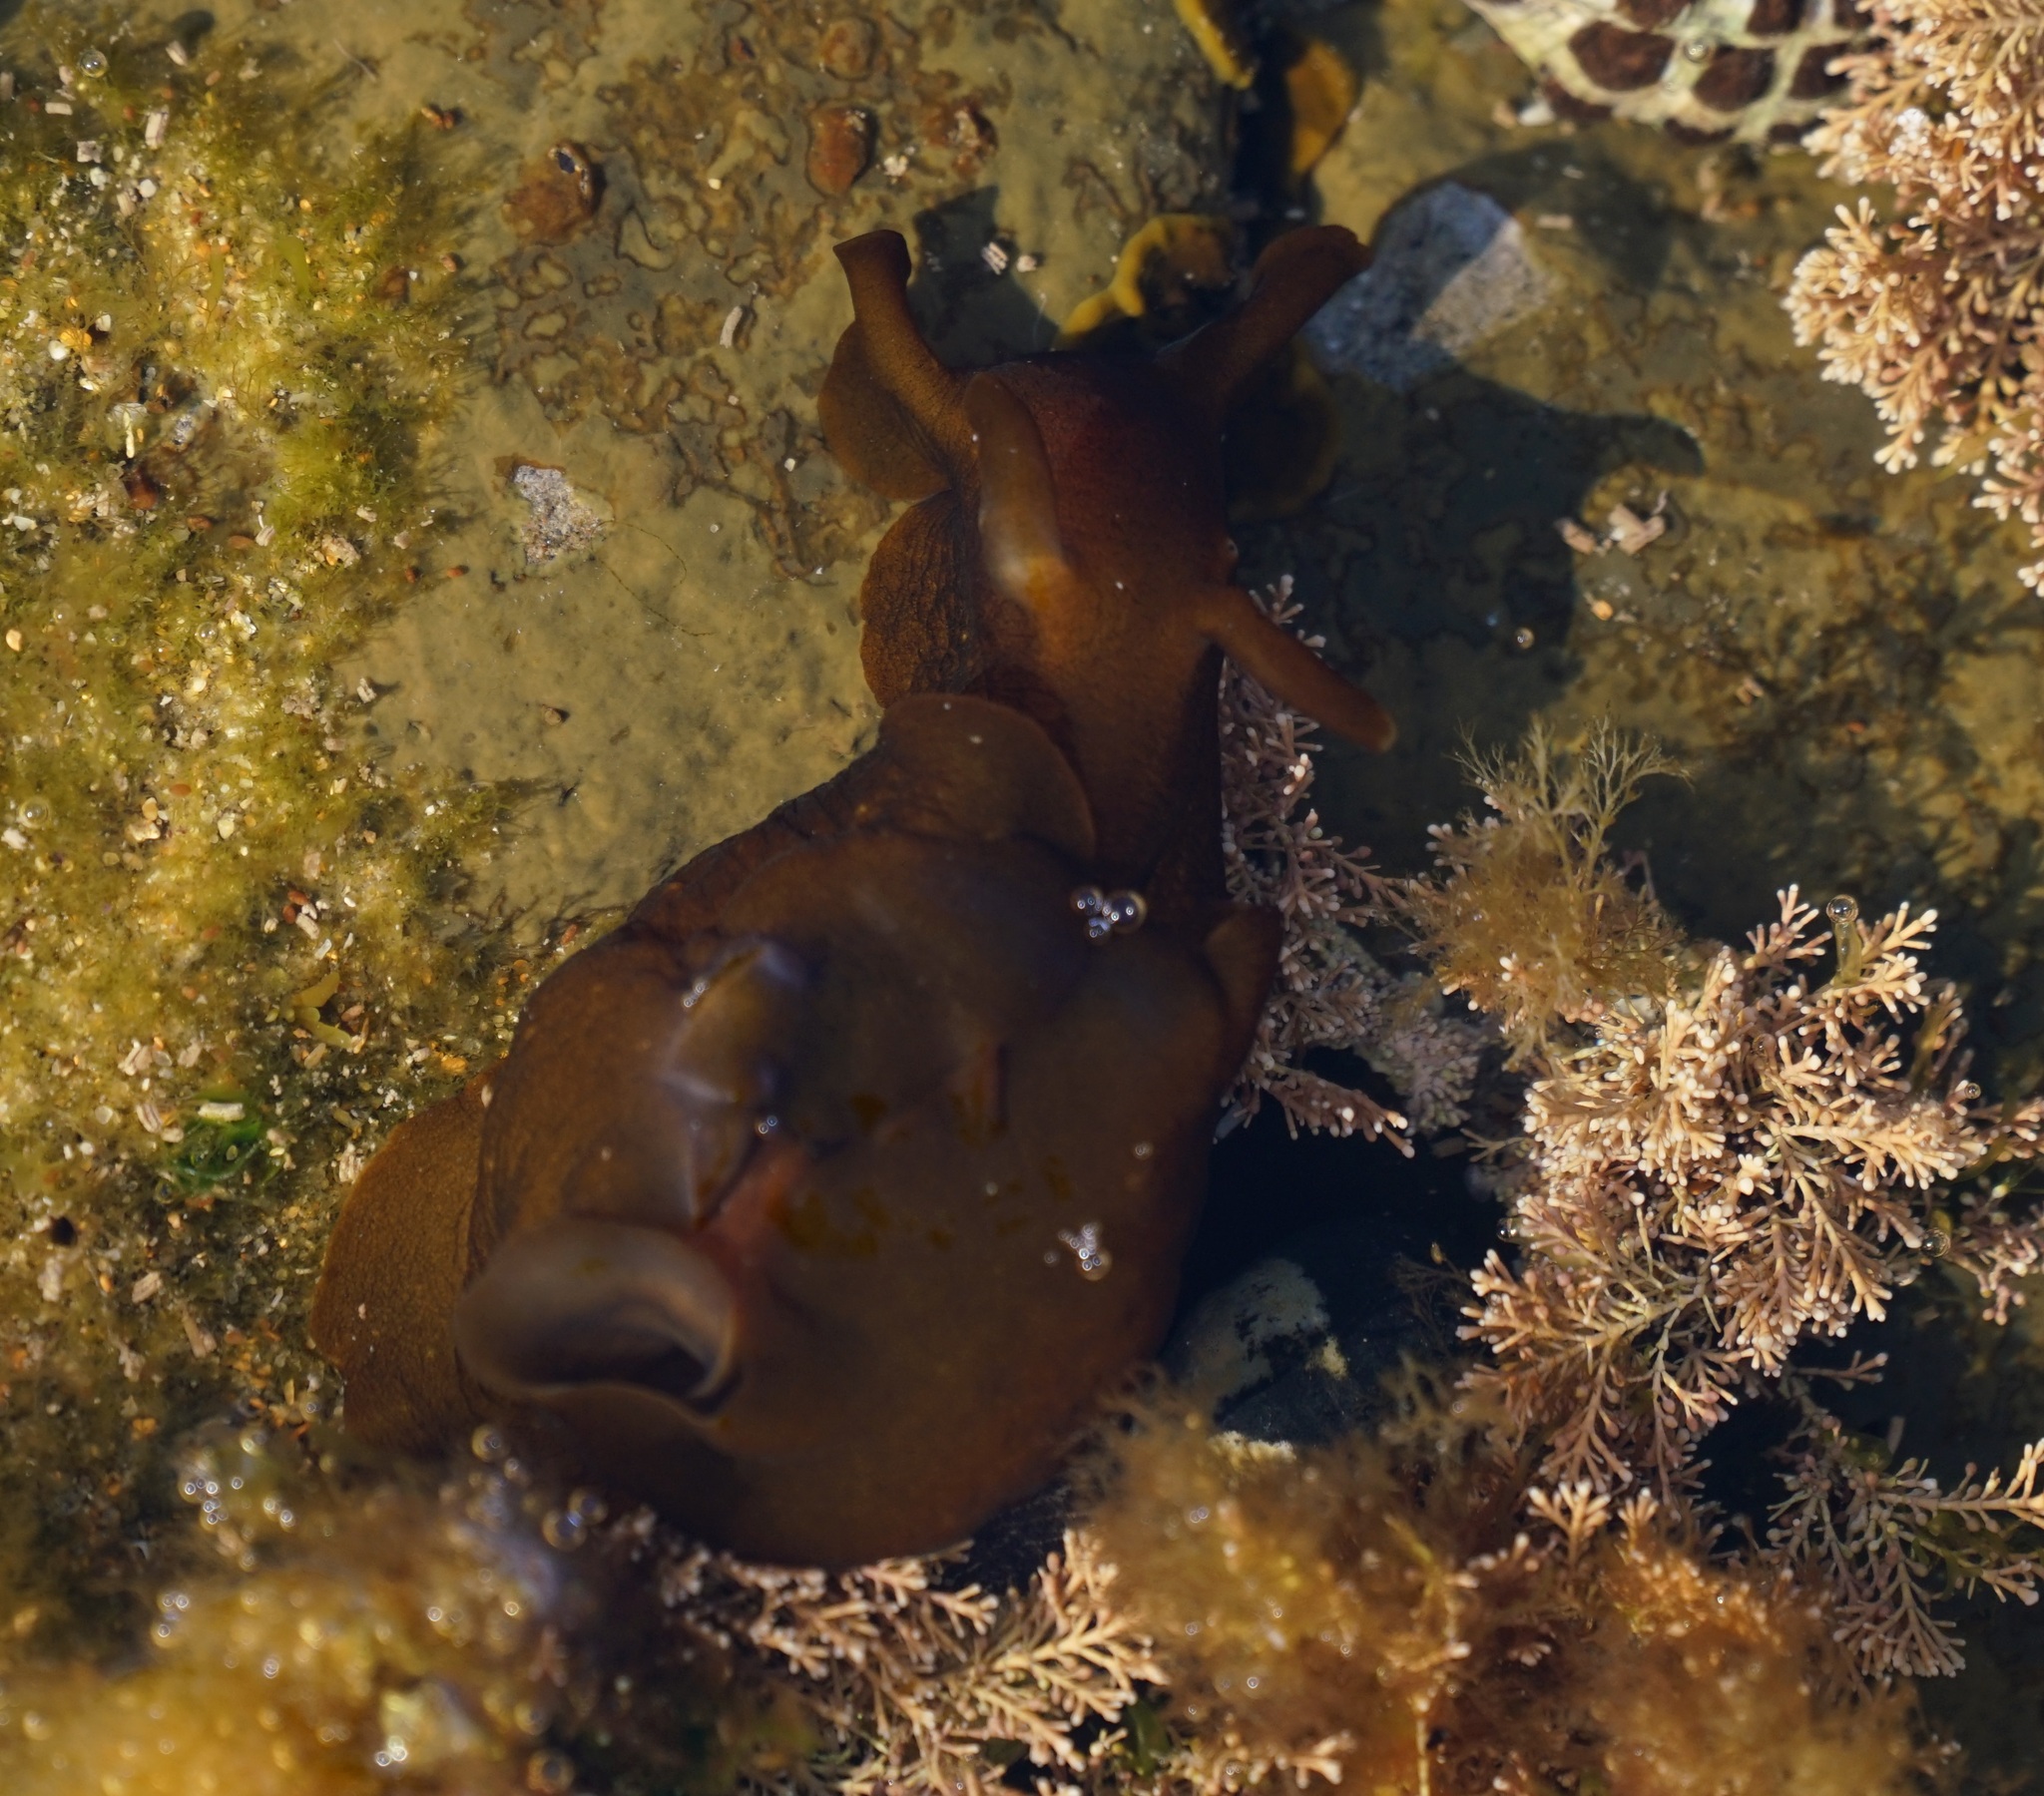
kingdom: Animalia
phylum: Mollusca
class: Gastropoda
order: Aplysiida
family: Aplysiidae
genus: Aplysia
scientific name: Aplysia juliana
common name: Walking sea hare
